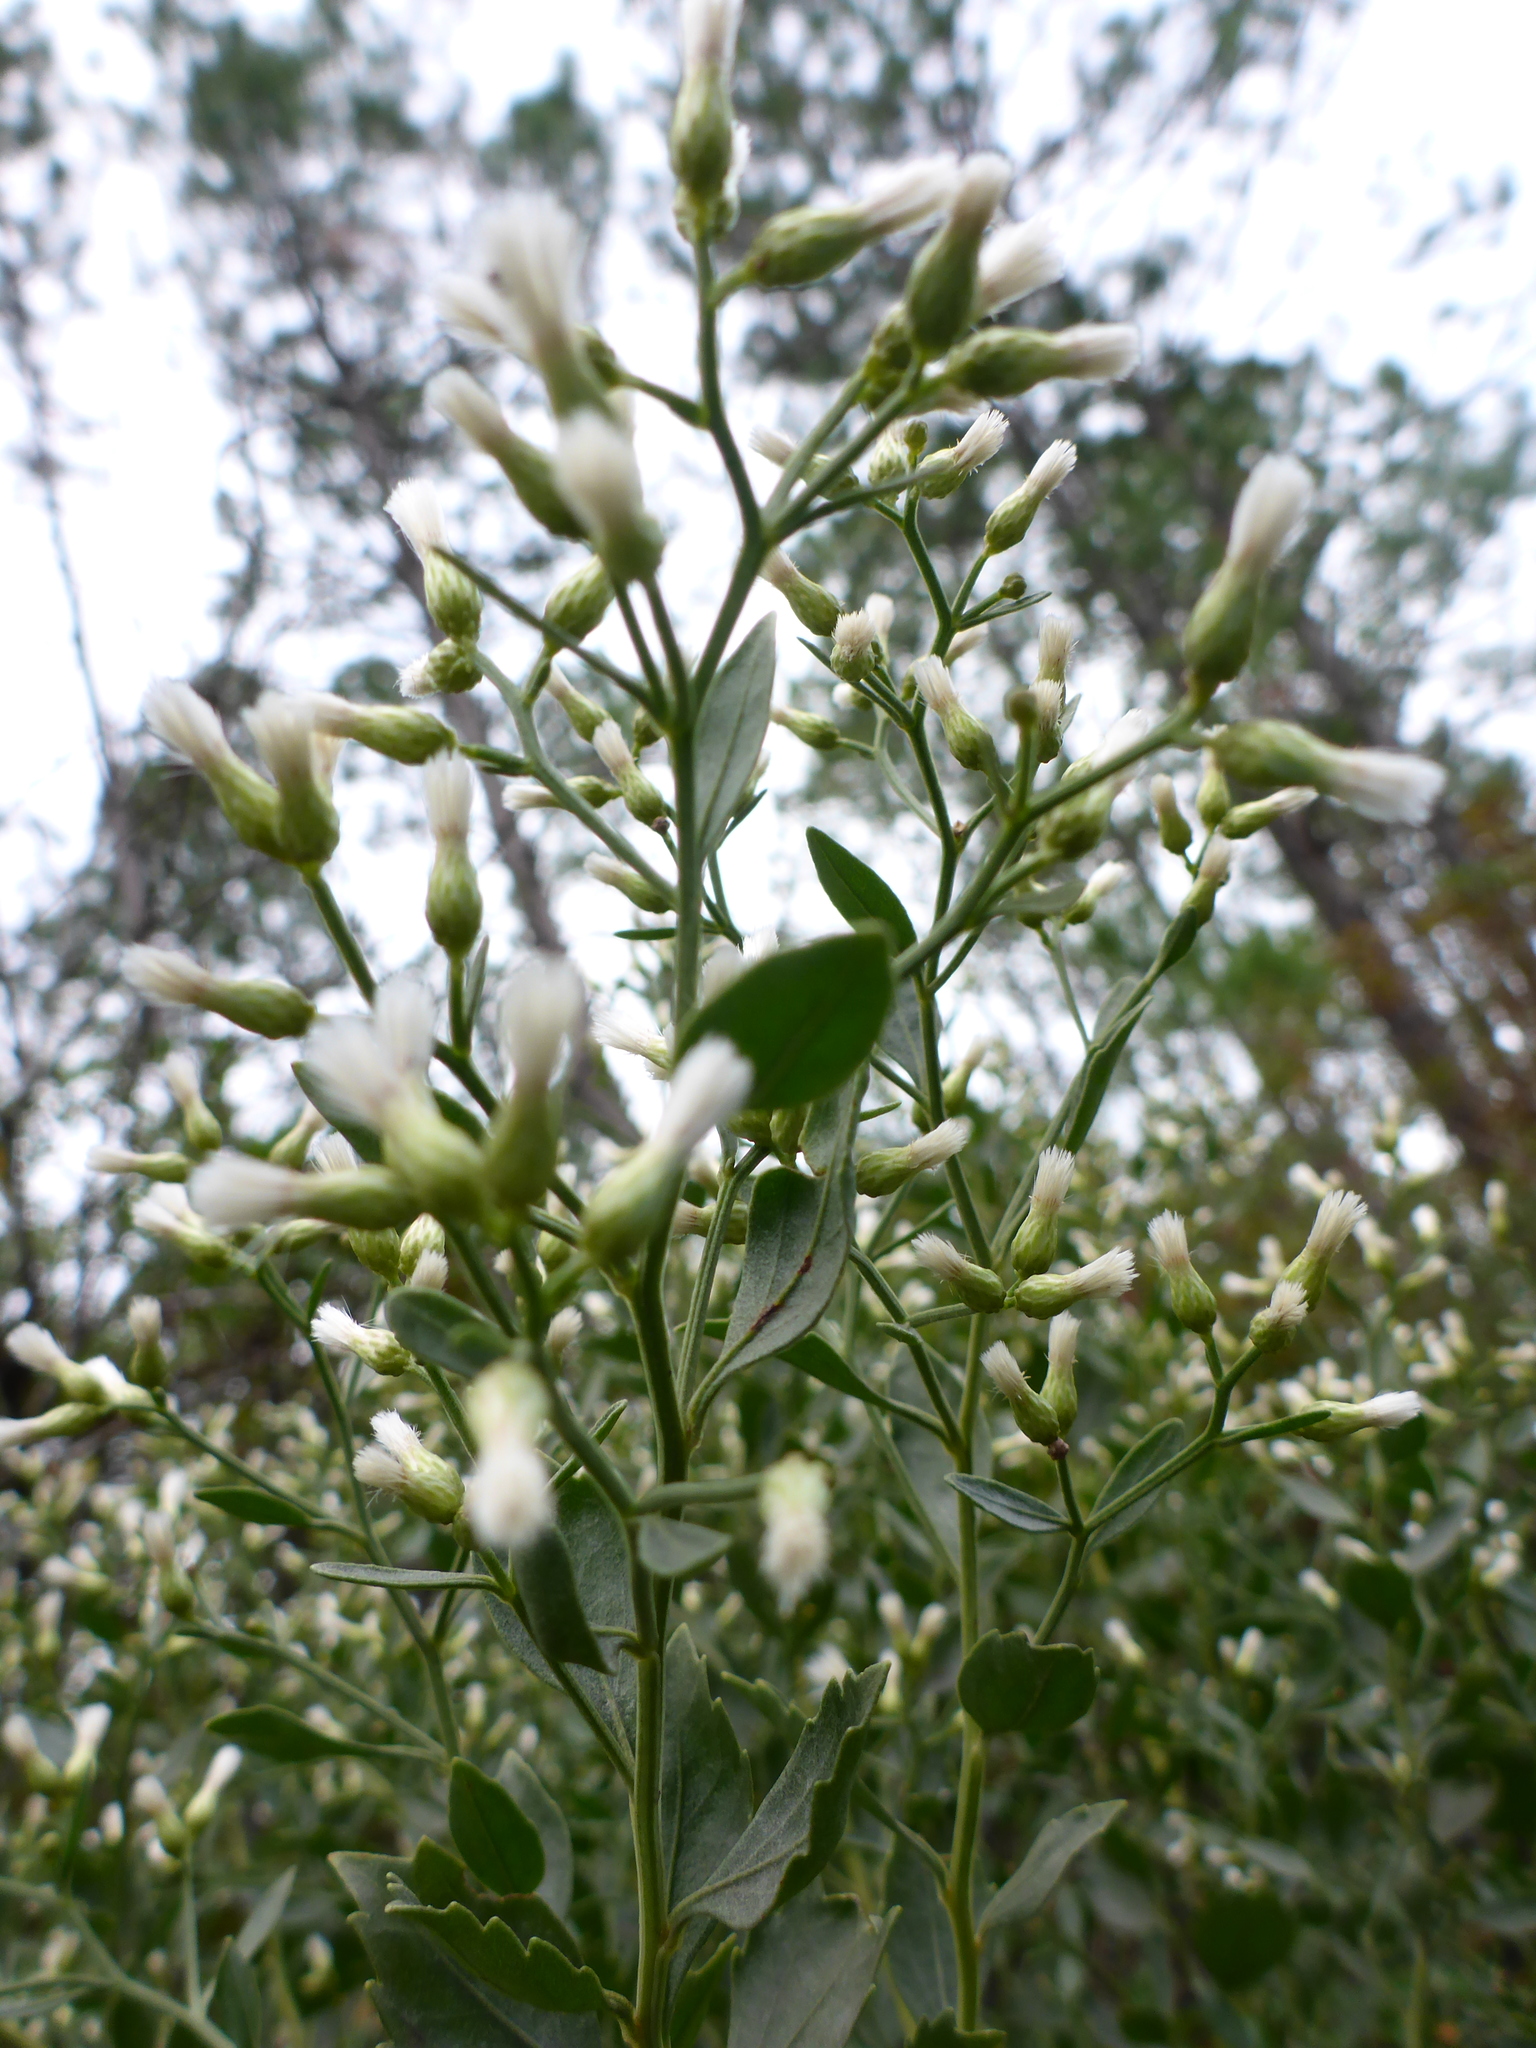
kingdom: Plantae
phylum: Tracheophyta
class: Magnoliopsida
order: Asterales
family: Asteraceae
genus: Baccharis
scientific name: Baccharis halimifolia
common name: Eastern baccharis
